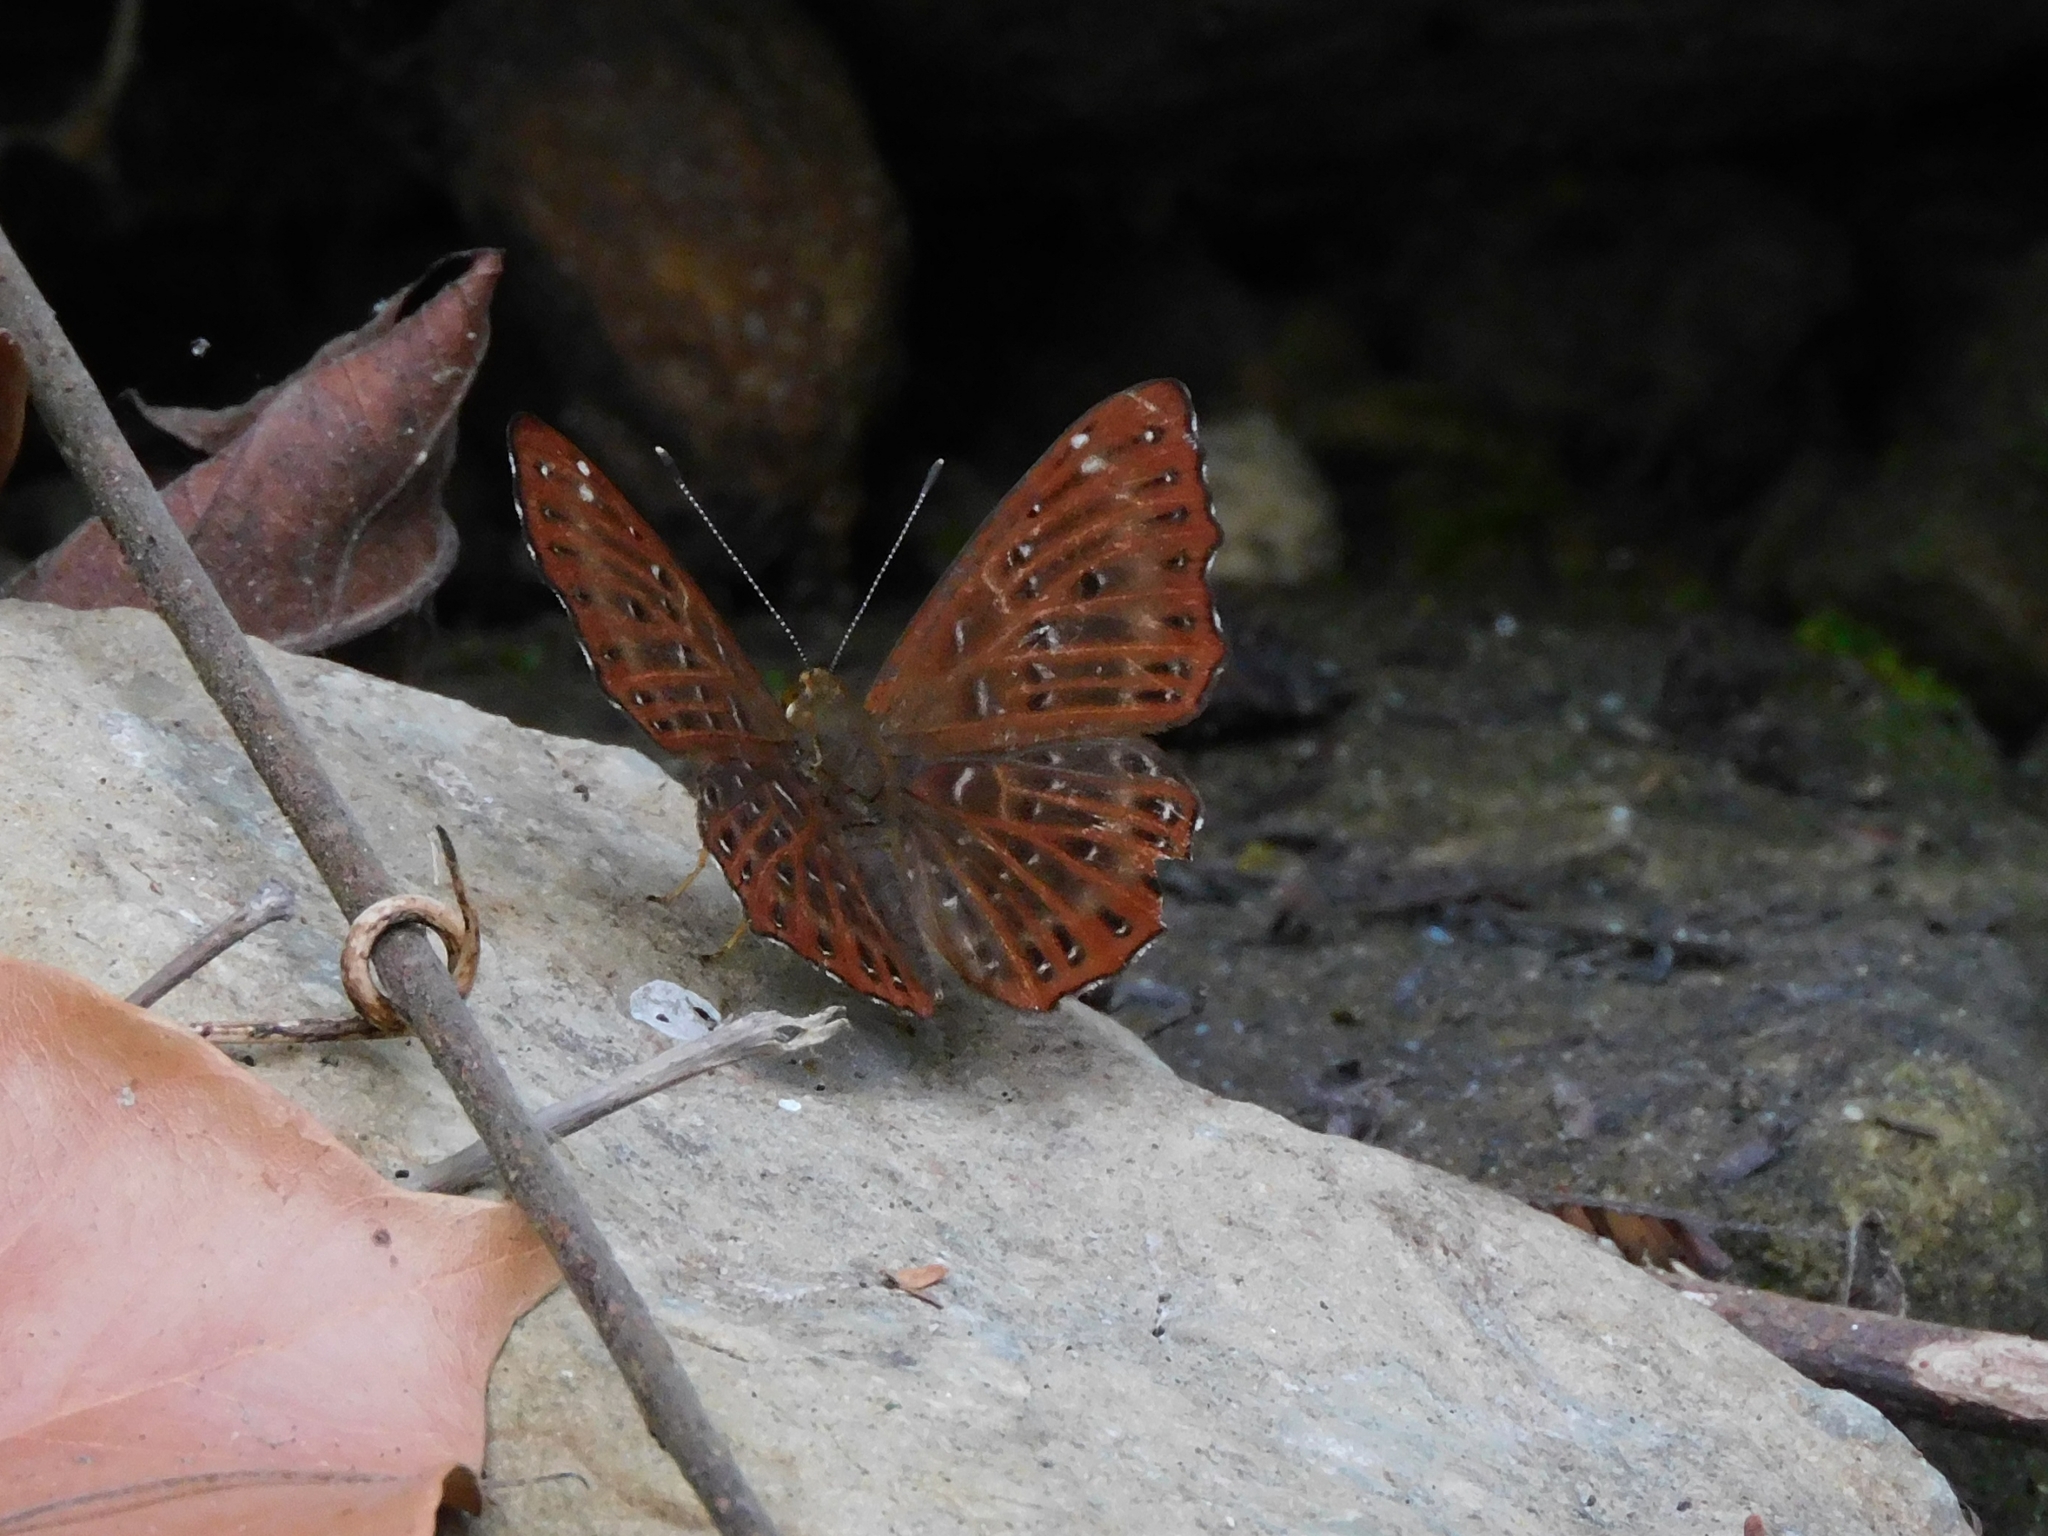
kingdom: Animalia
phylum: Arthropoda
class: Insecta
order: Lepidoptera
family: Riodinidae
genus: Zemeros
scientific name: Zemeros flegyas
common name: Punchinello
